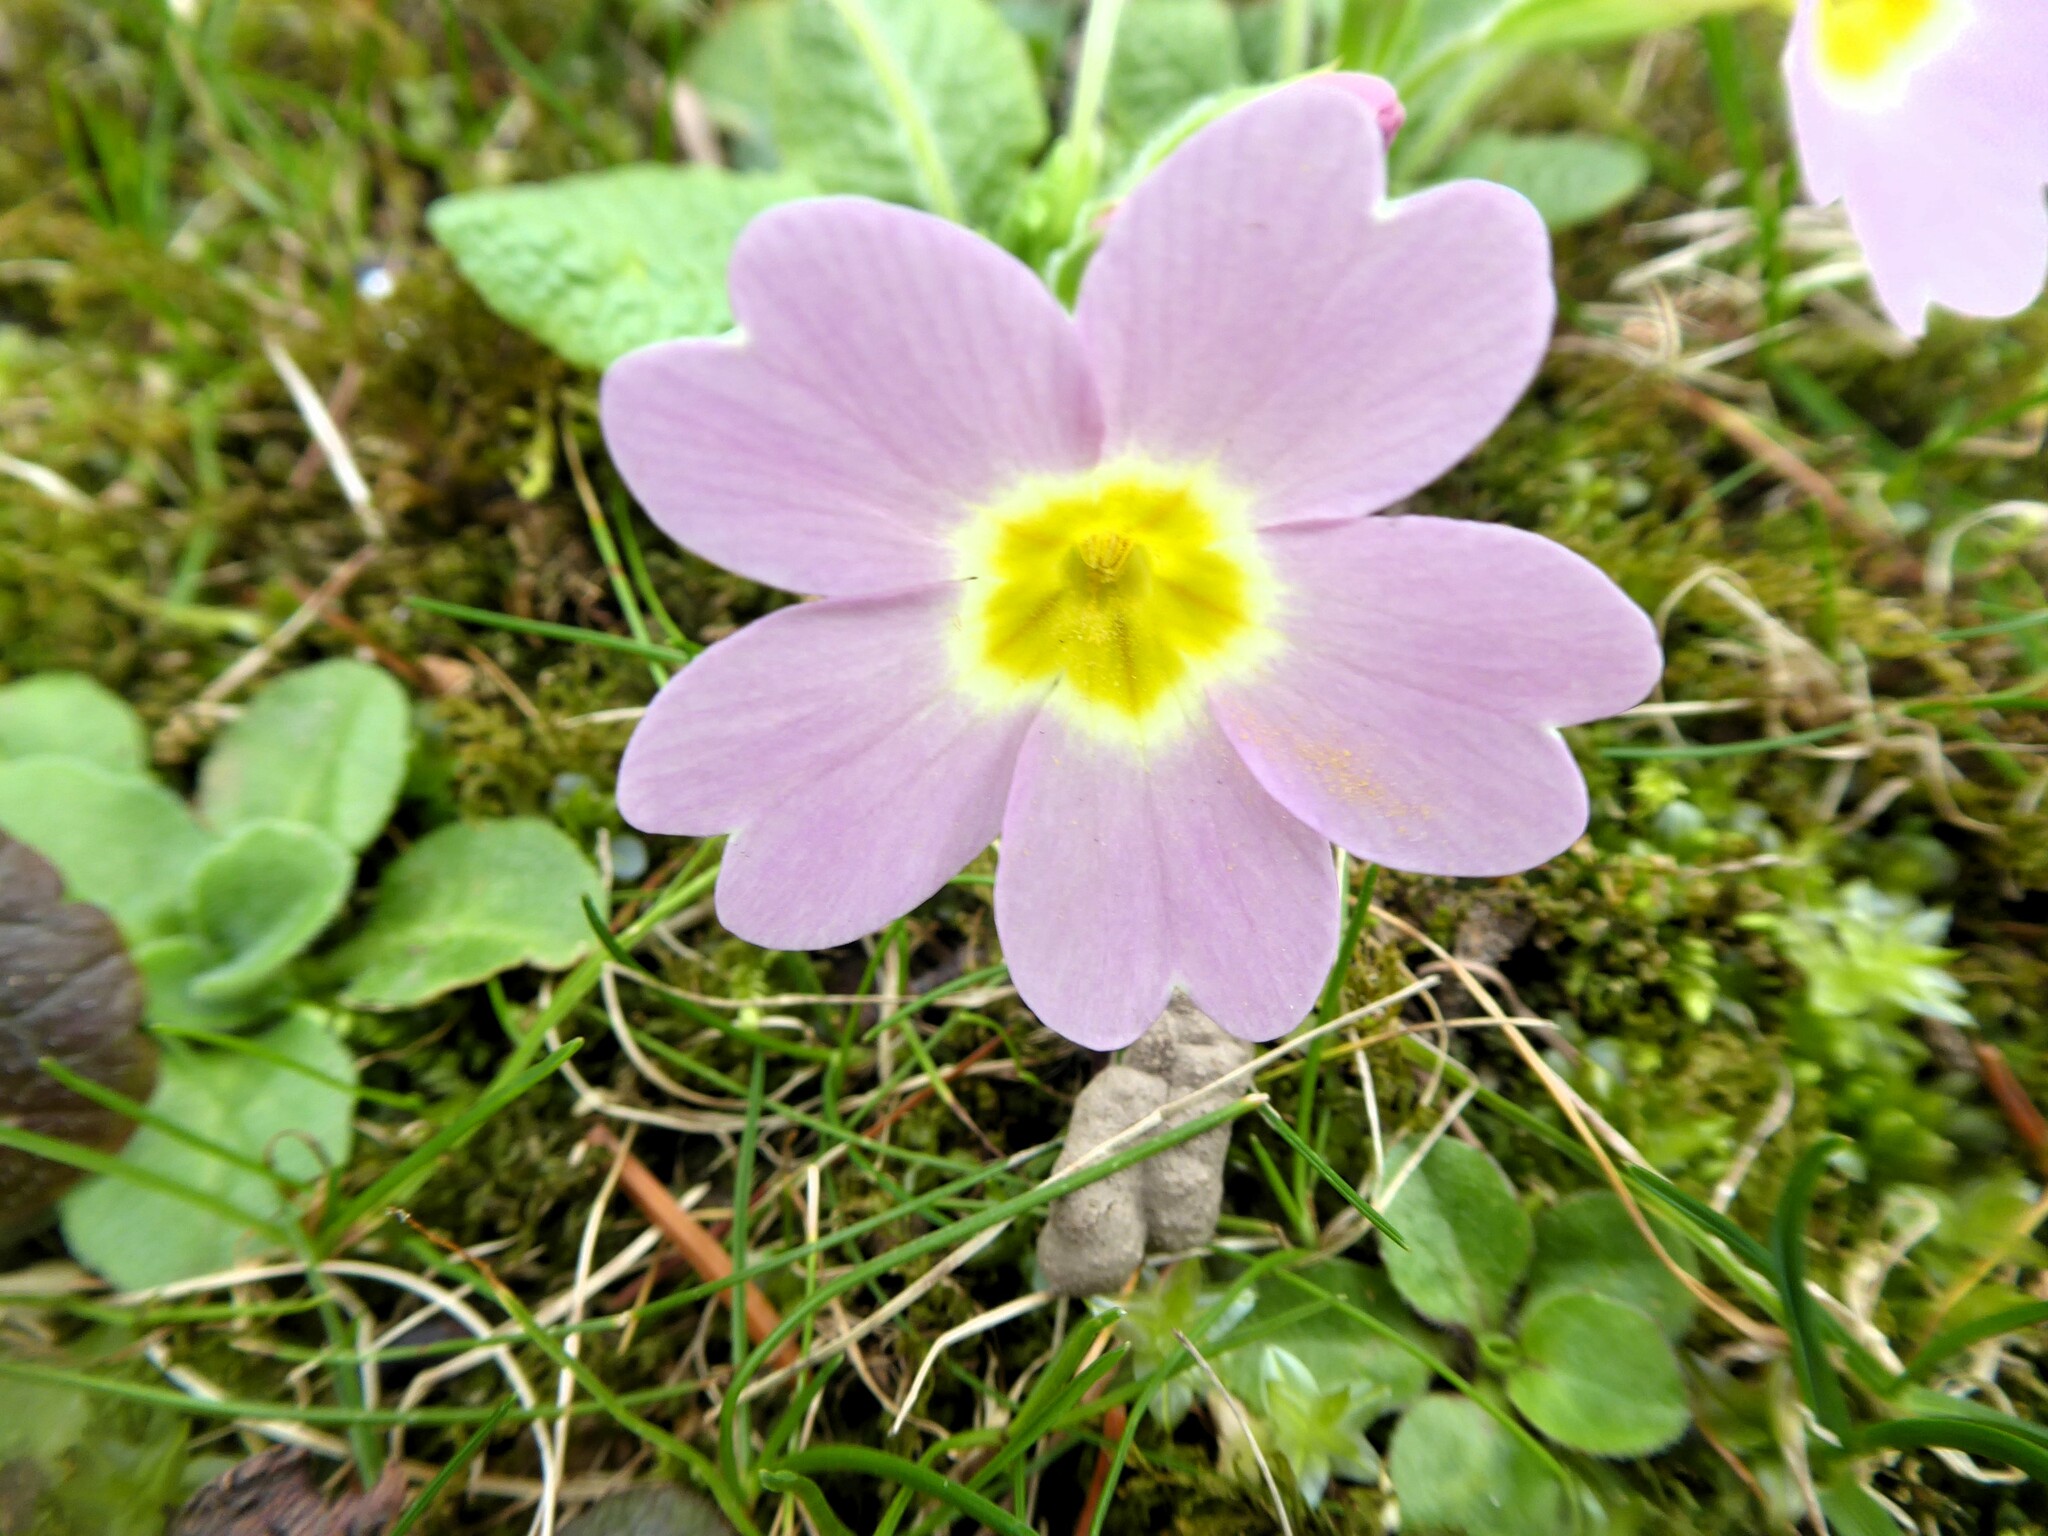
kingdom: Plantae
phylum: Tracheophyta
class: Magnoliopsida
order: Ericales
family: Primulaceae
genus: Primula
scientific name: Primula vulgaris
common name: Primrose
